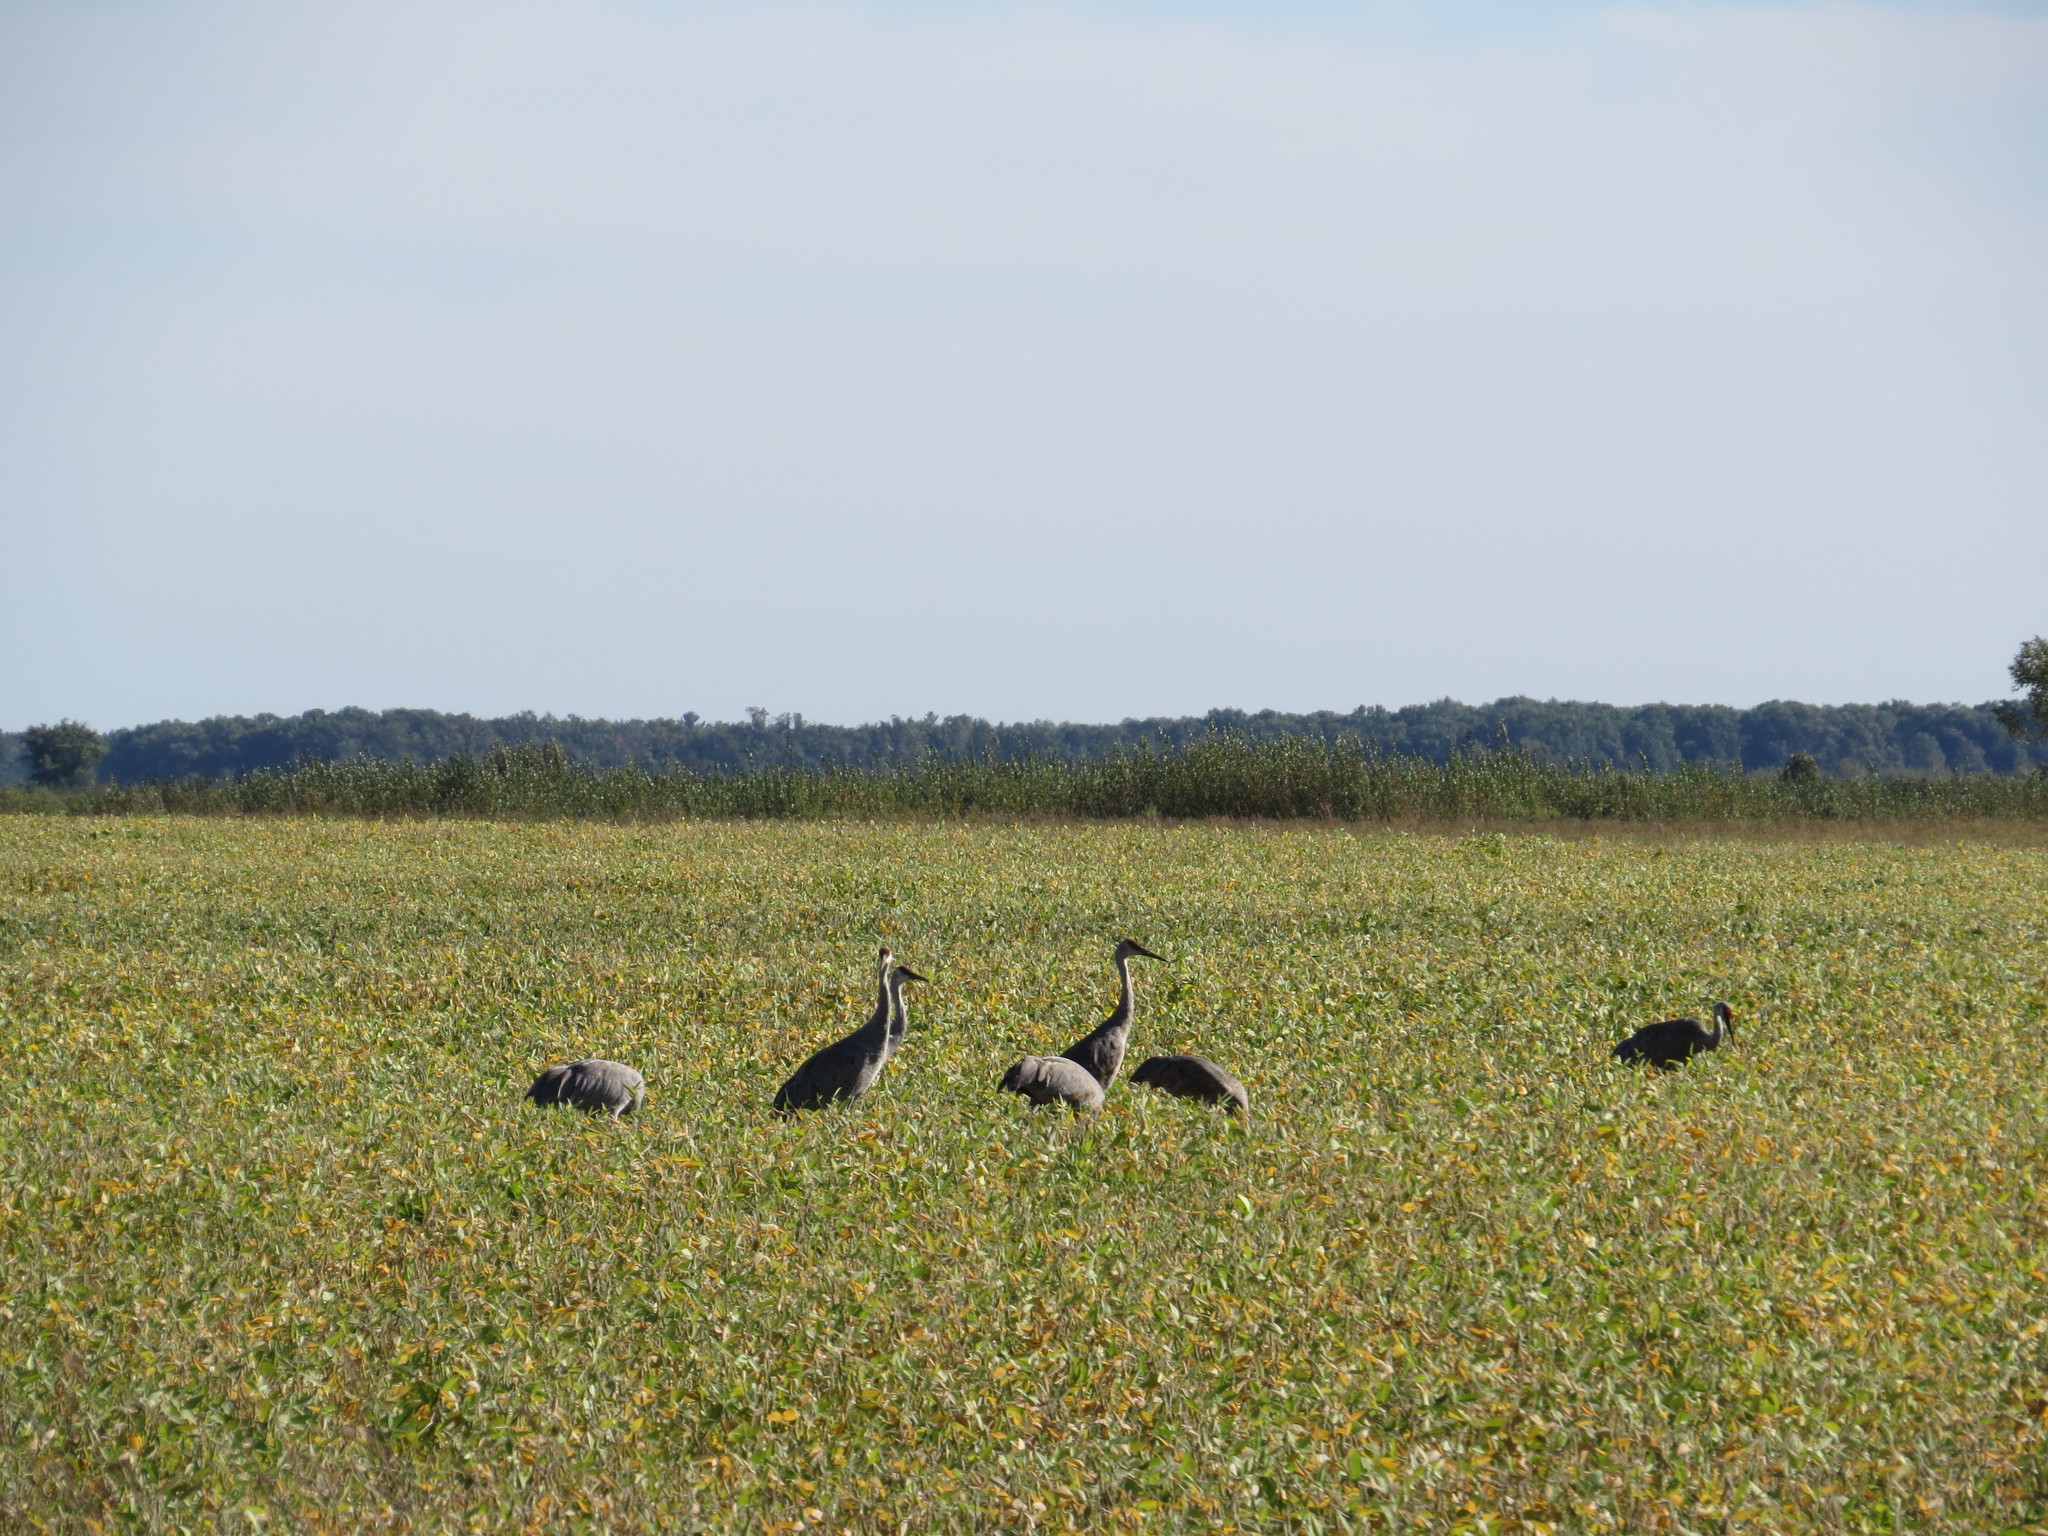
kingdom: Animalia
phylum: Chordata
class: Aves
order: Gruiformes
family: Gruidae
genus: Grus
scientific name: Grus canadensis
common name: Sandhill crane
